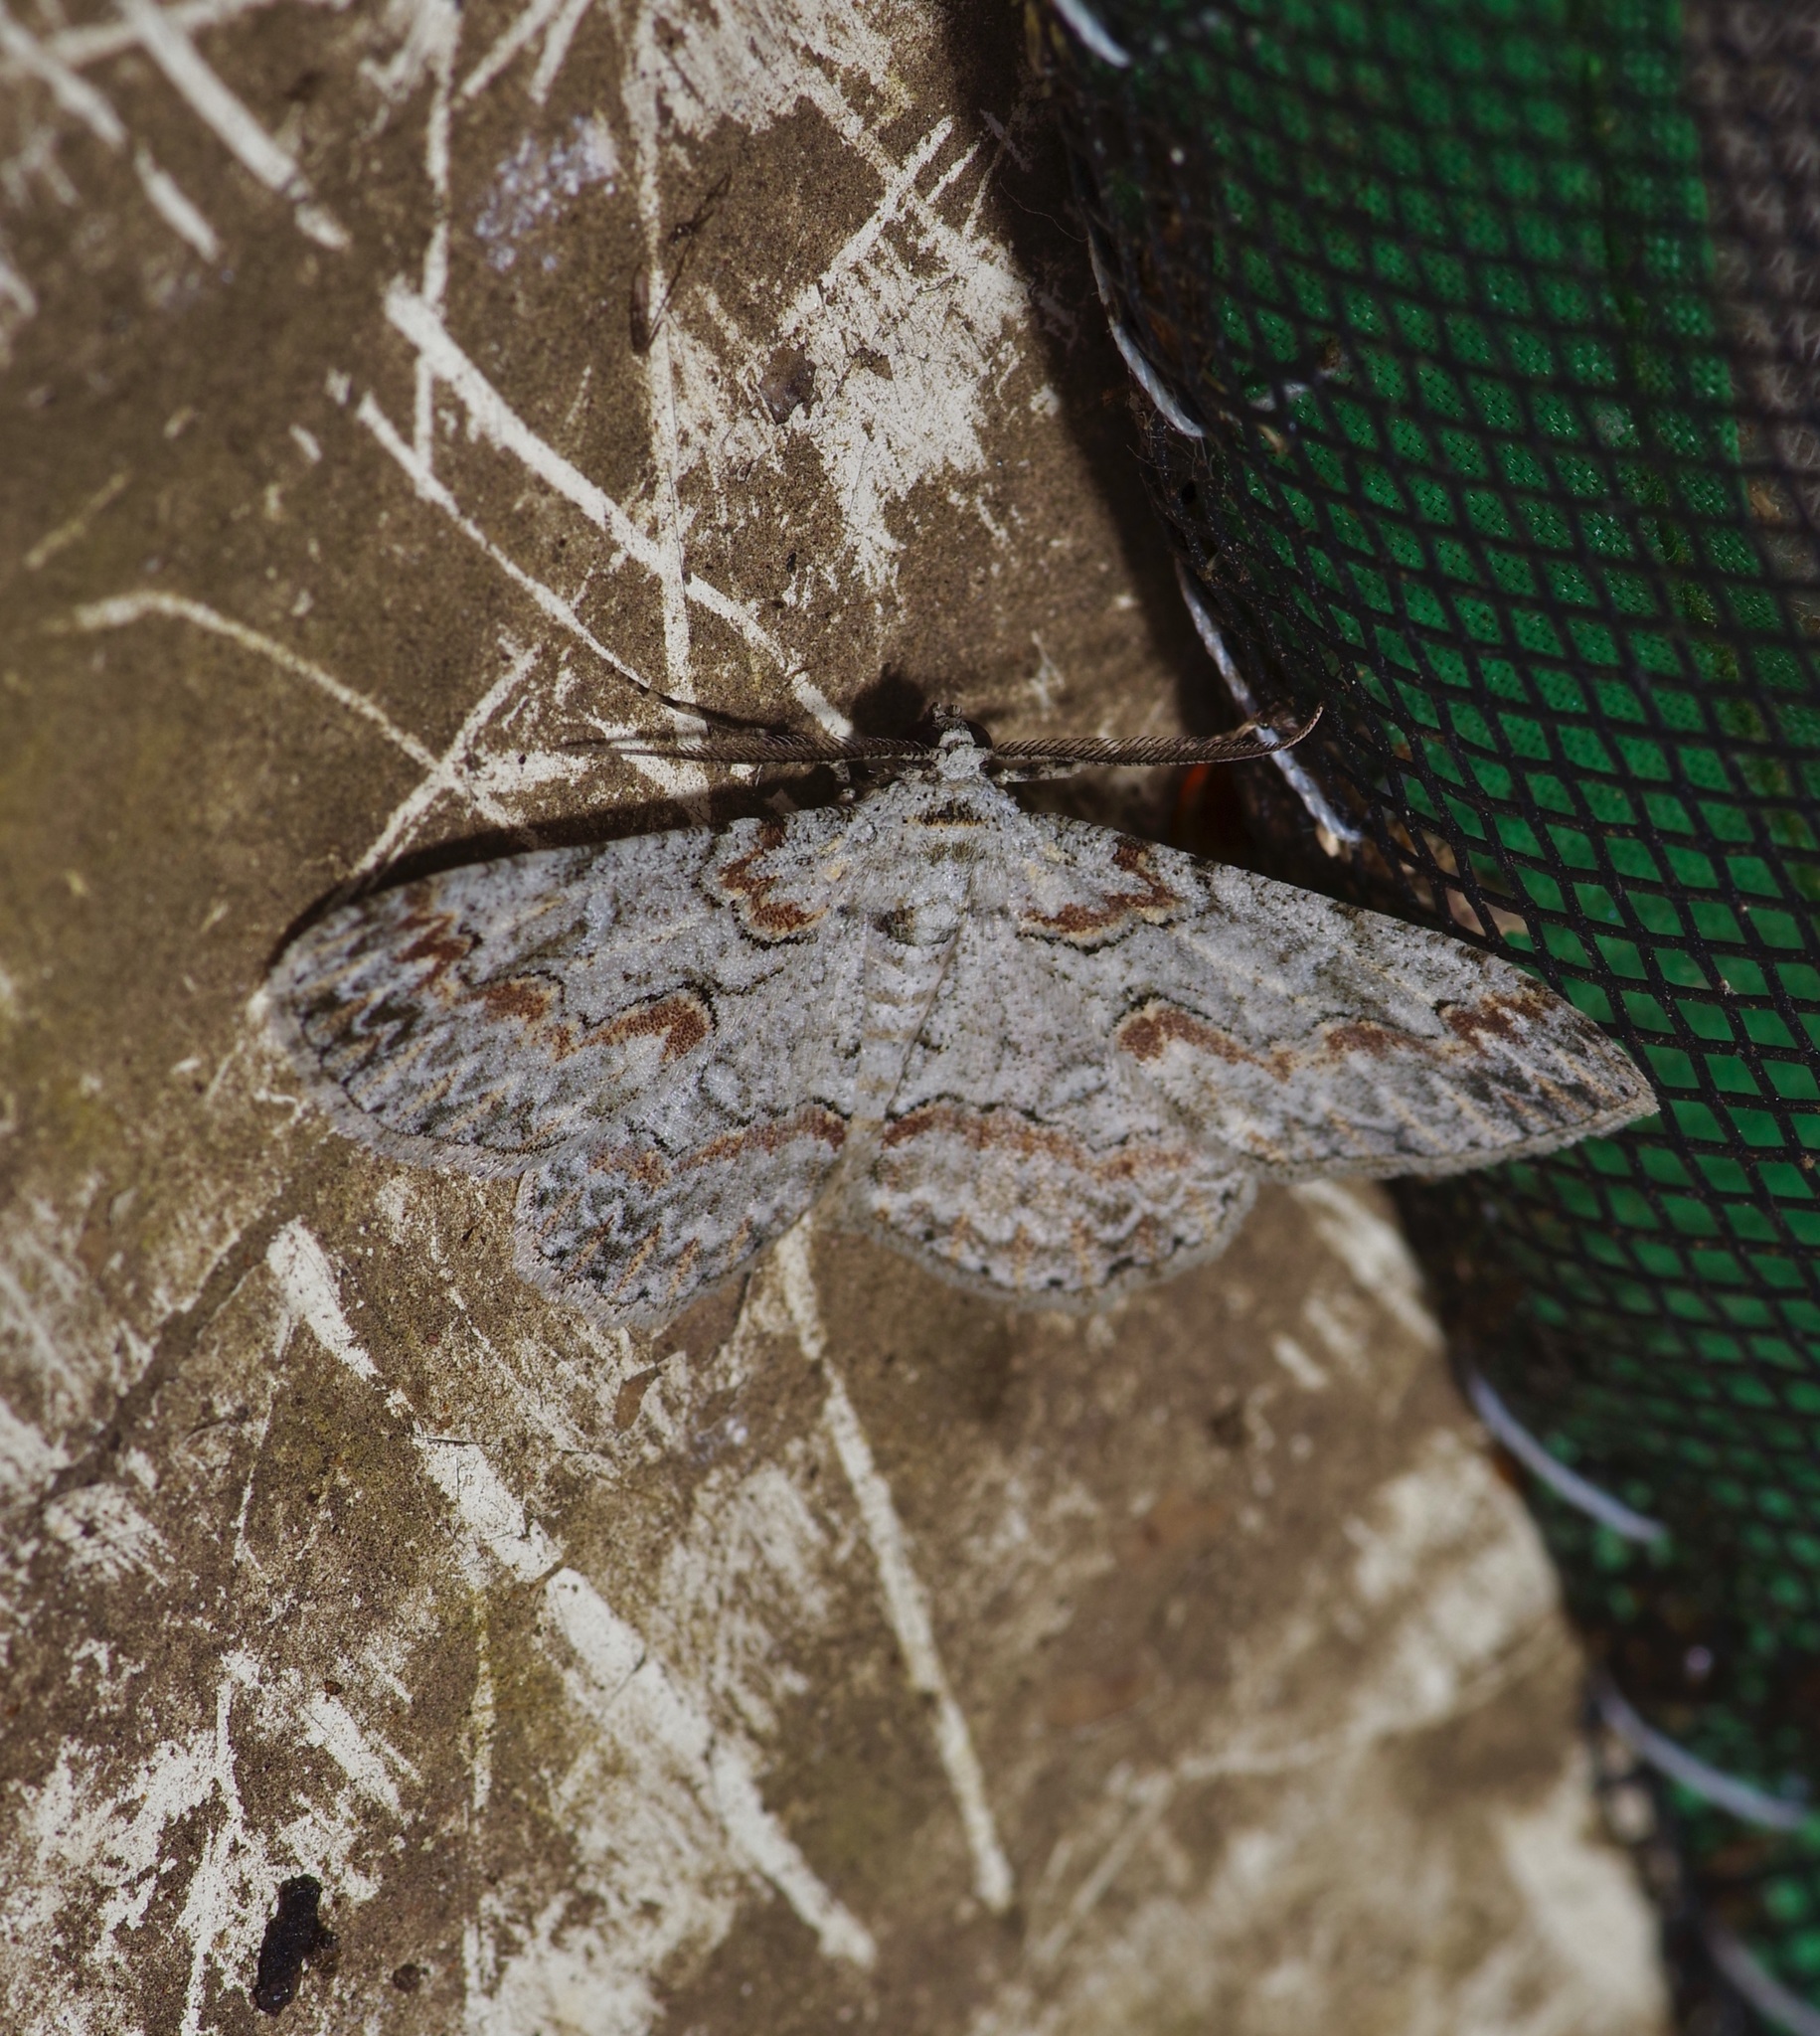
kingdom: Animalia
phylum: Arthropoda
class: Insecta
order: Lepidoptera
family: Geometridae
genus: Iridopsis
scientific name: Iridopsis defectaria
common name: Brown-shaded gray
